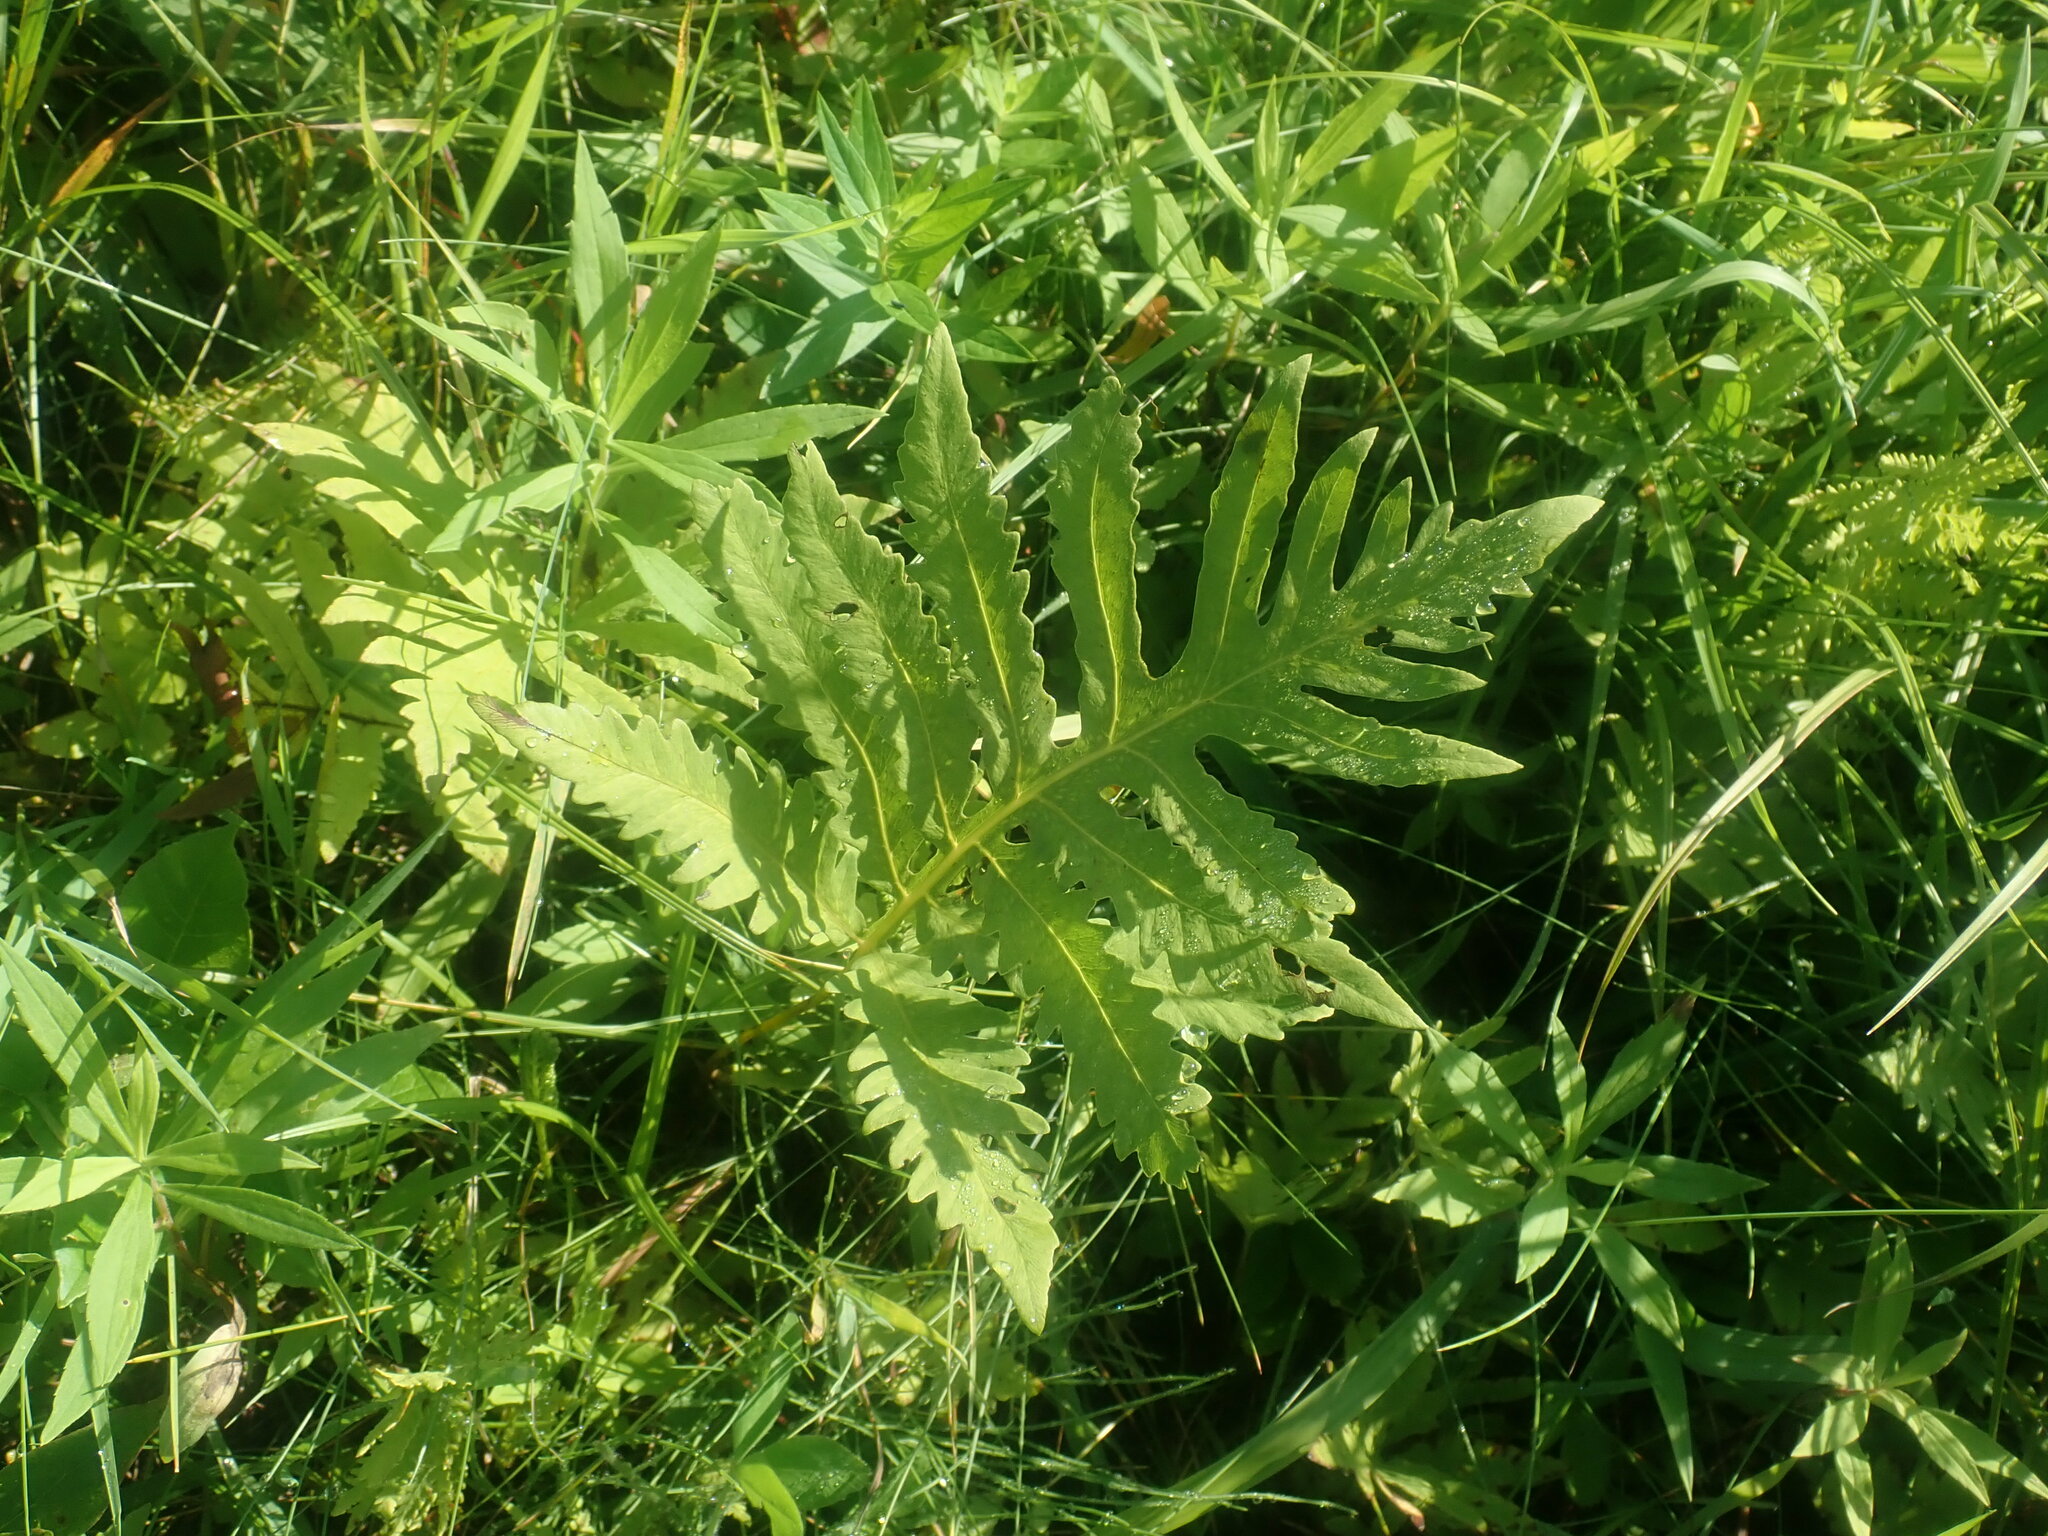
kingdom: Plantae
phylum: Tracheophyta
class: Polypodiopsida
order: Polypodiales
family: Onocleaceae
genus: Onoclea
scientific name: Onoclea sensibilis
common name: Sensitive fern
